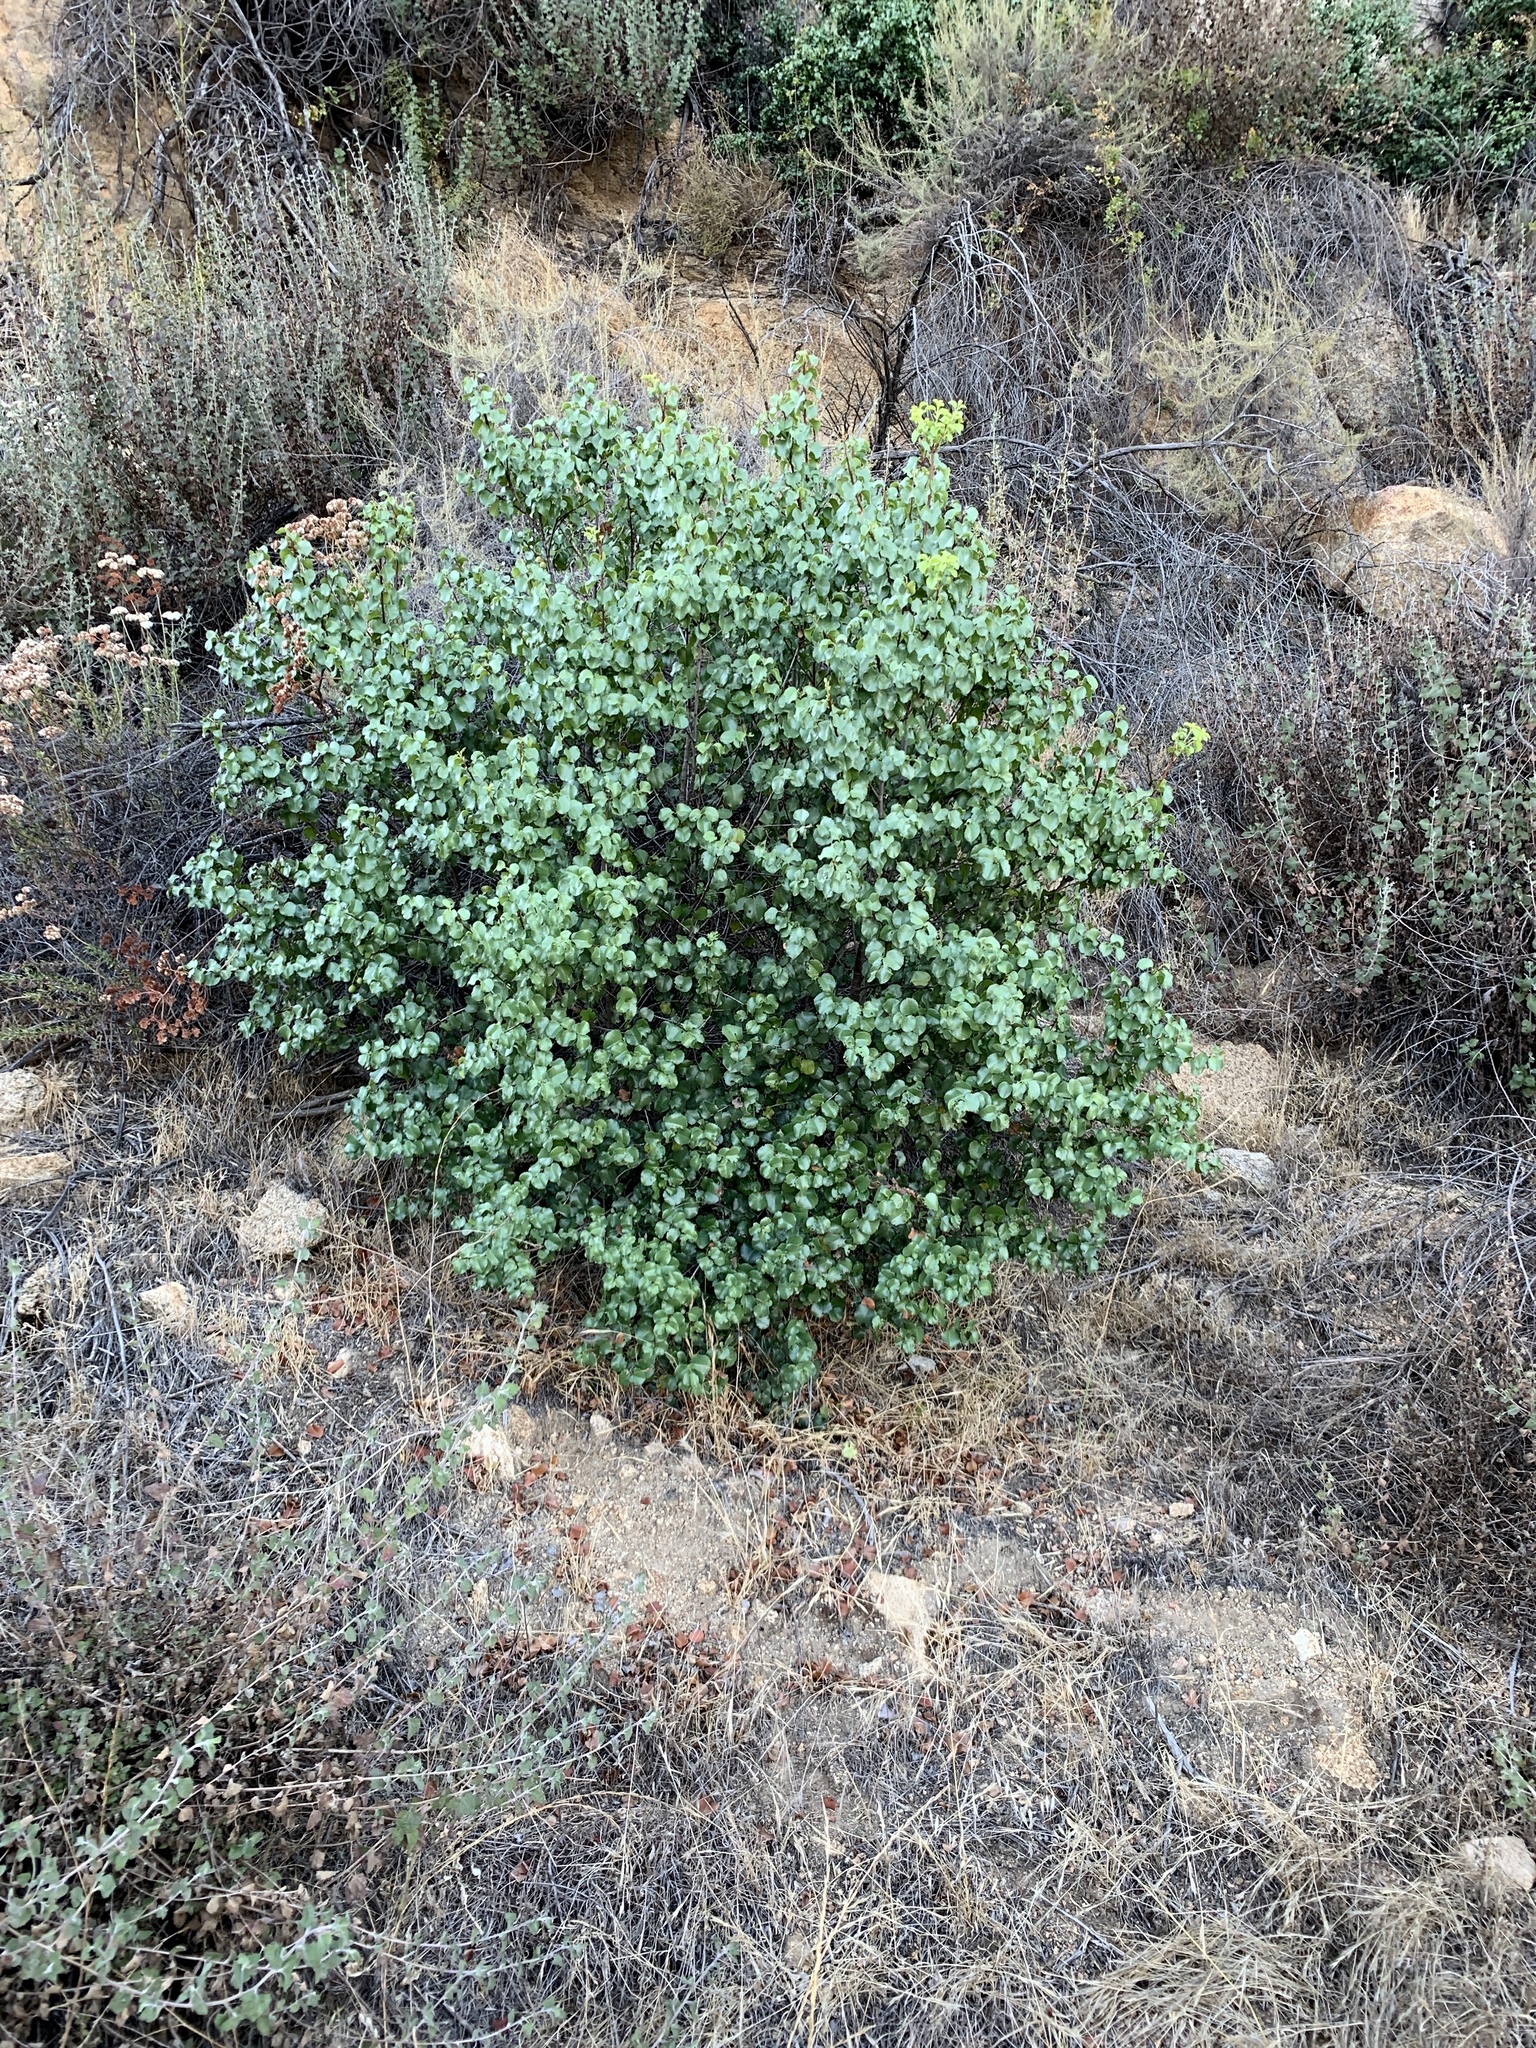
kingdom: Plantae
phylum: Tracheophyta
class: Magnoliopsida
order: Rosales
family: Rosaceae
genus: Prunus
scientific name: Prunus ilicifolia
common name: Hollyleaf cherry
